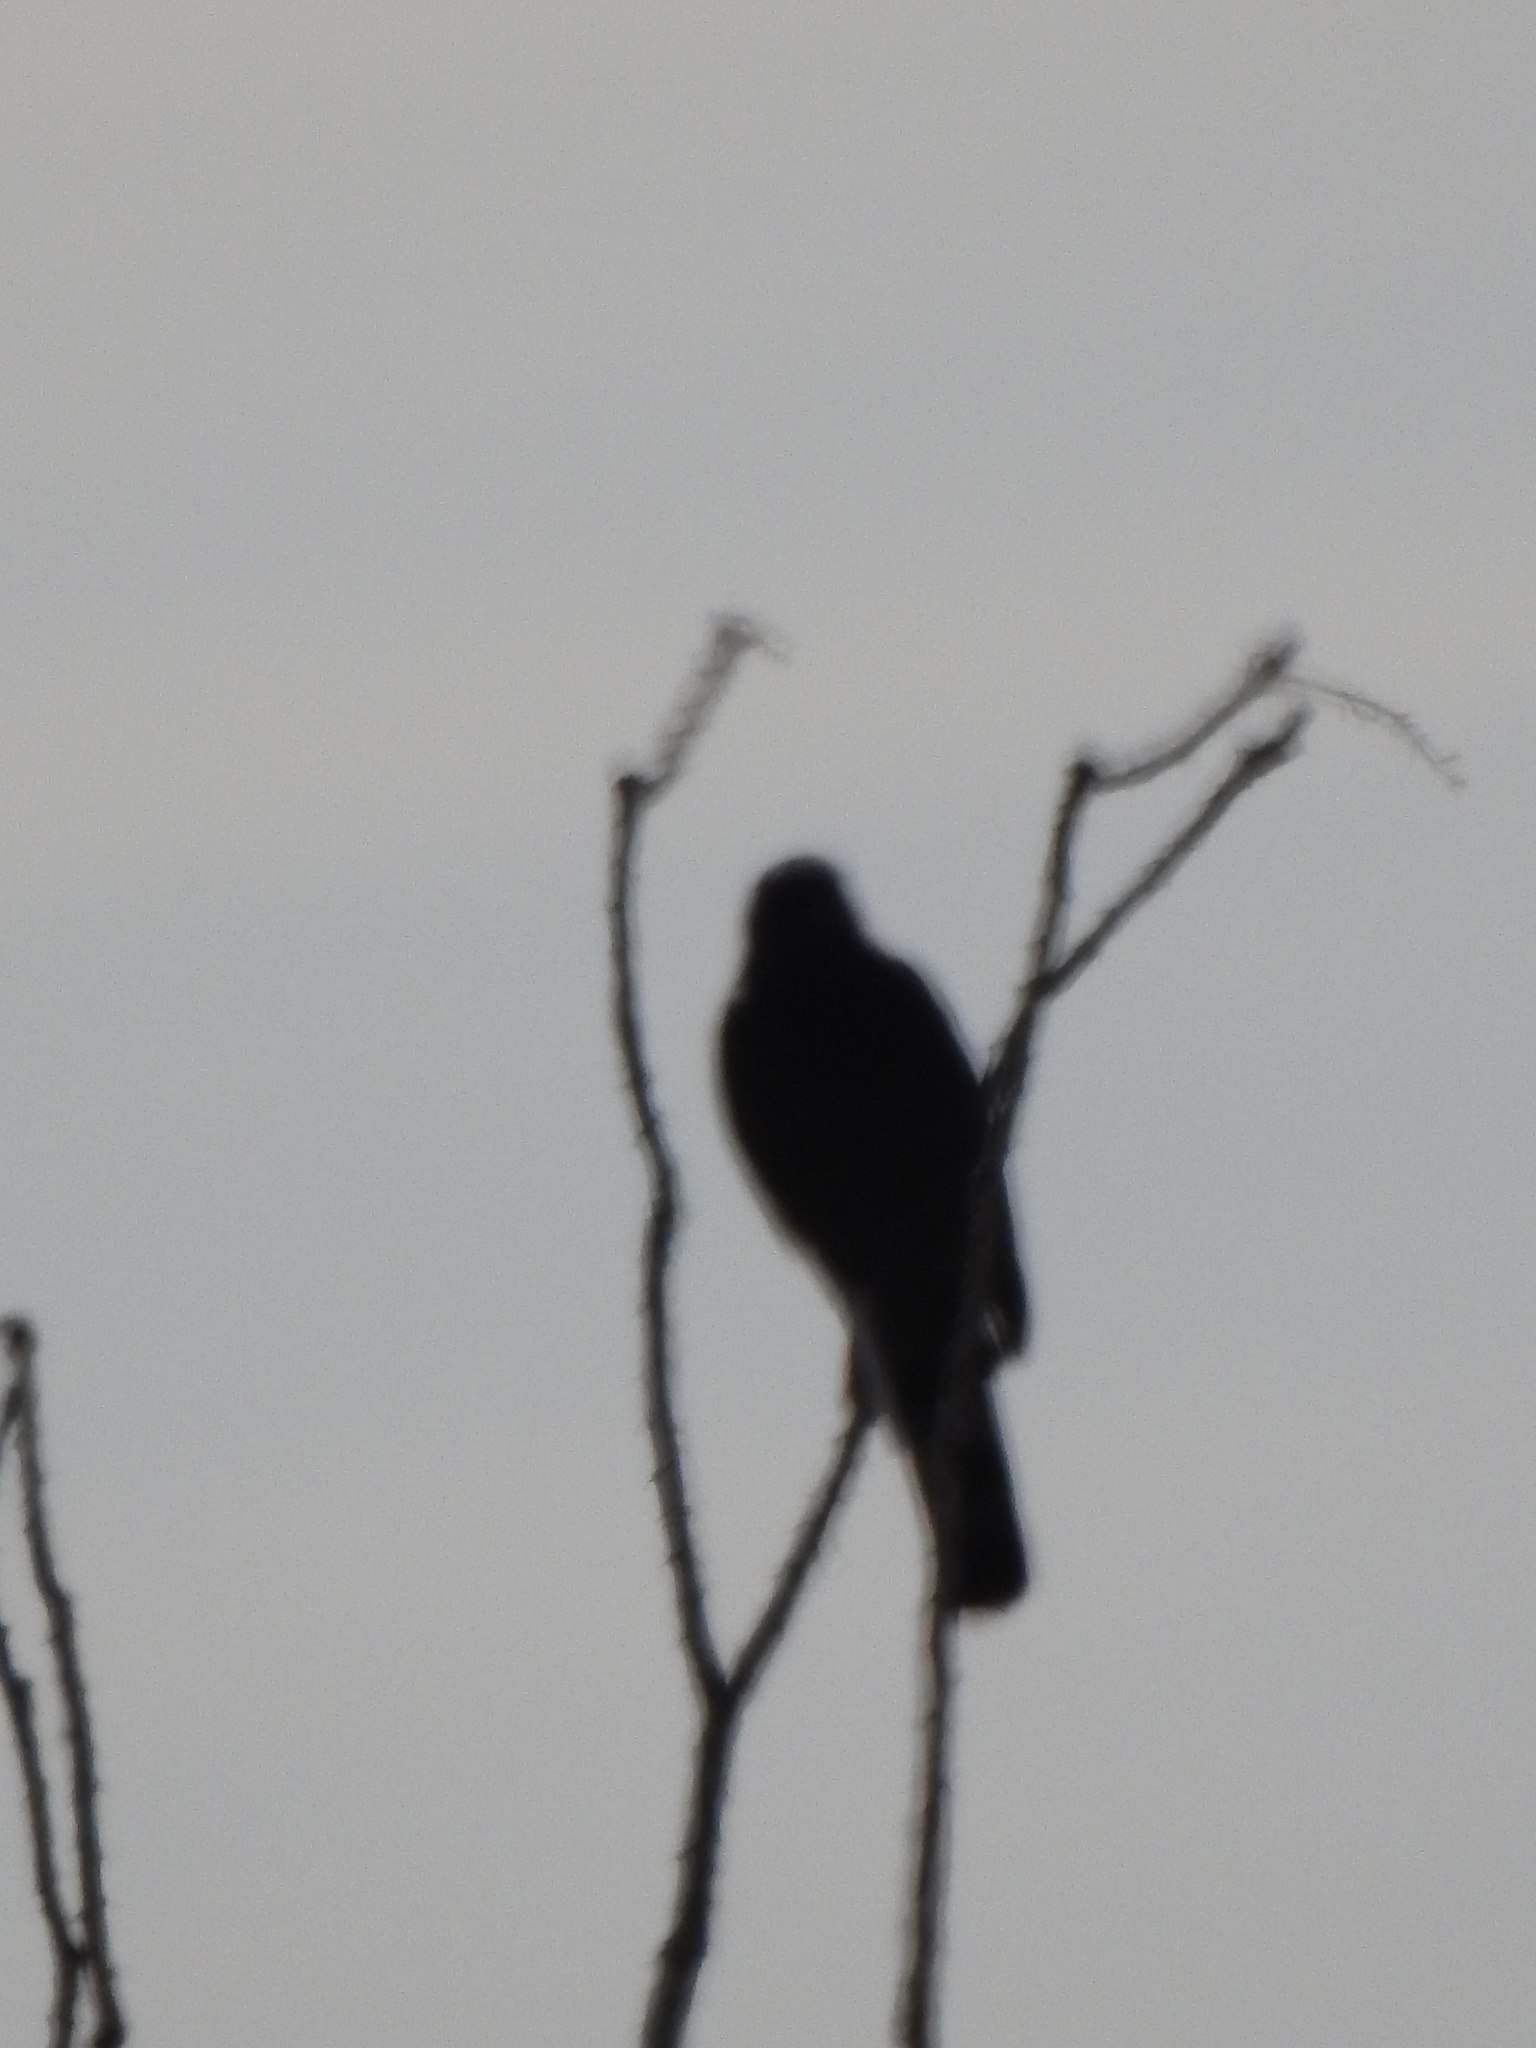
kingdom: Animalia
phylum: Chordata
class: Aves
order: Accipitriformes
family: Accipitridae
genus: Accipiter
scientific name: Accipiter cooperii
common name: Cooper's hawk
